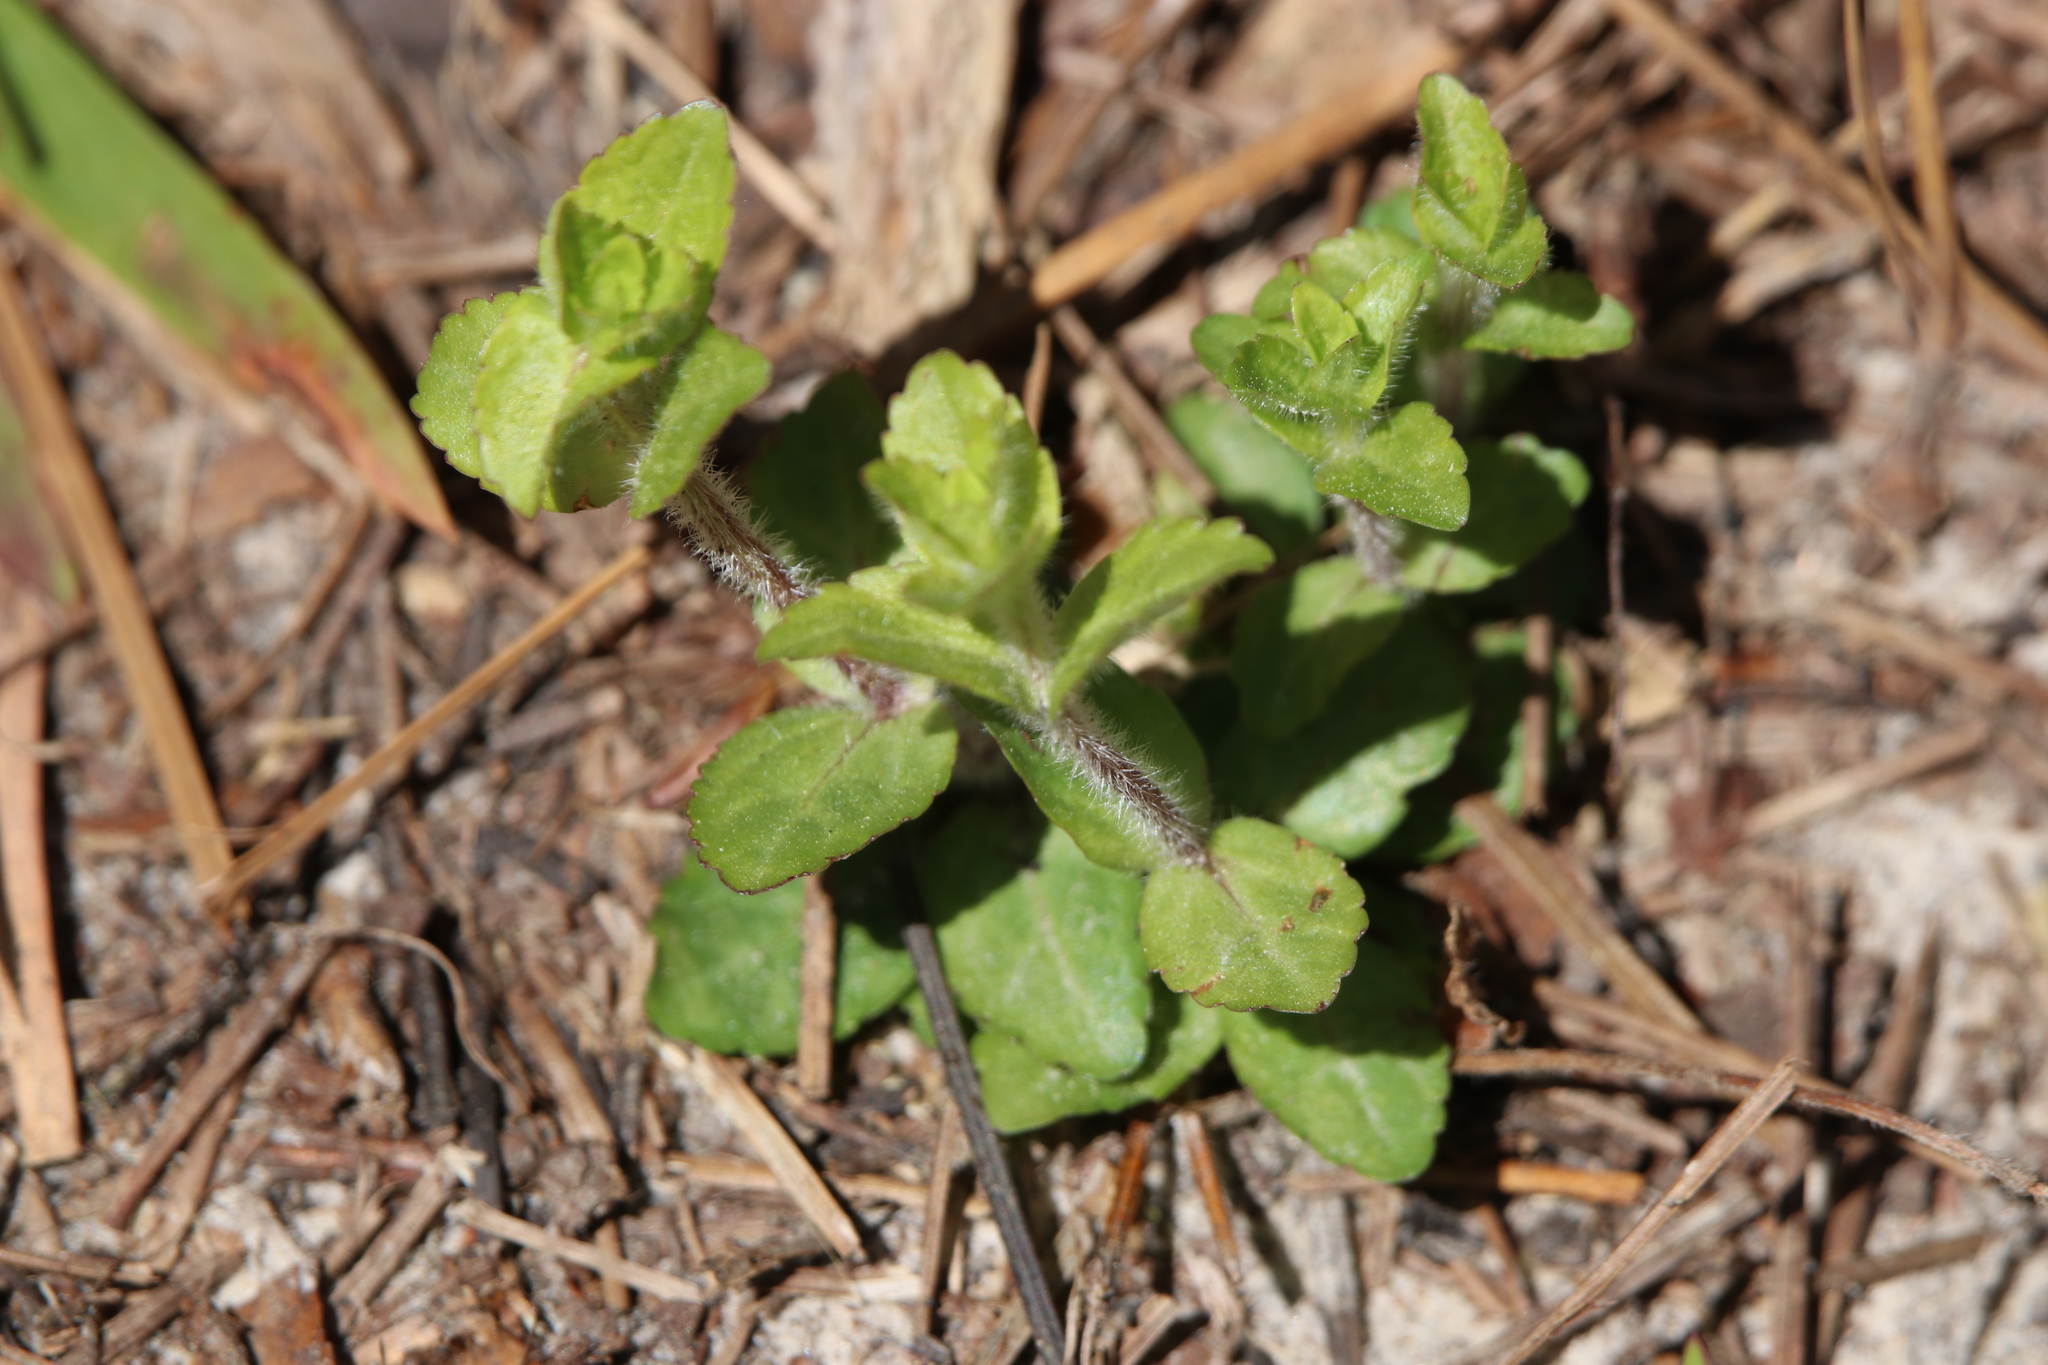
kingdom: Plantae
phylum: Tracheophyta
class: Magnoliopsida
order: Lamiales
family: Plantaginaceae
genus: Gratiola
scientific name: Gratiola pilosa
